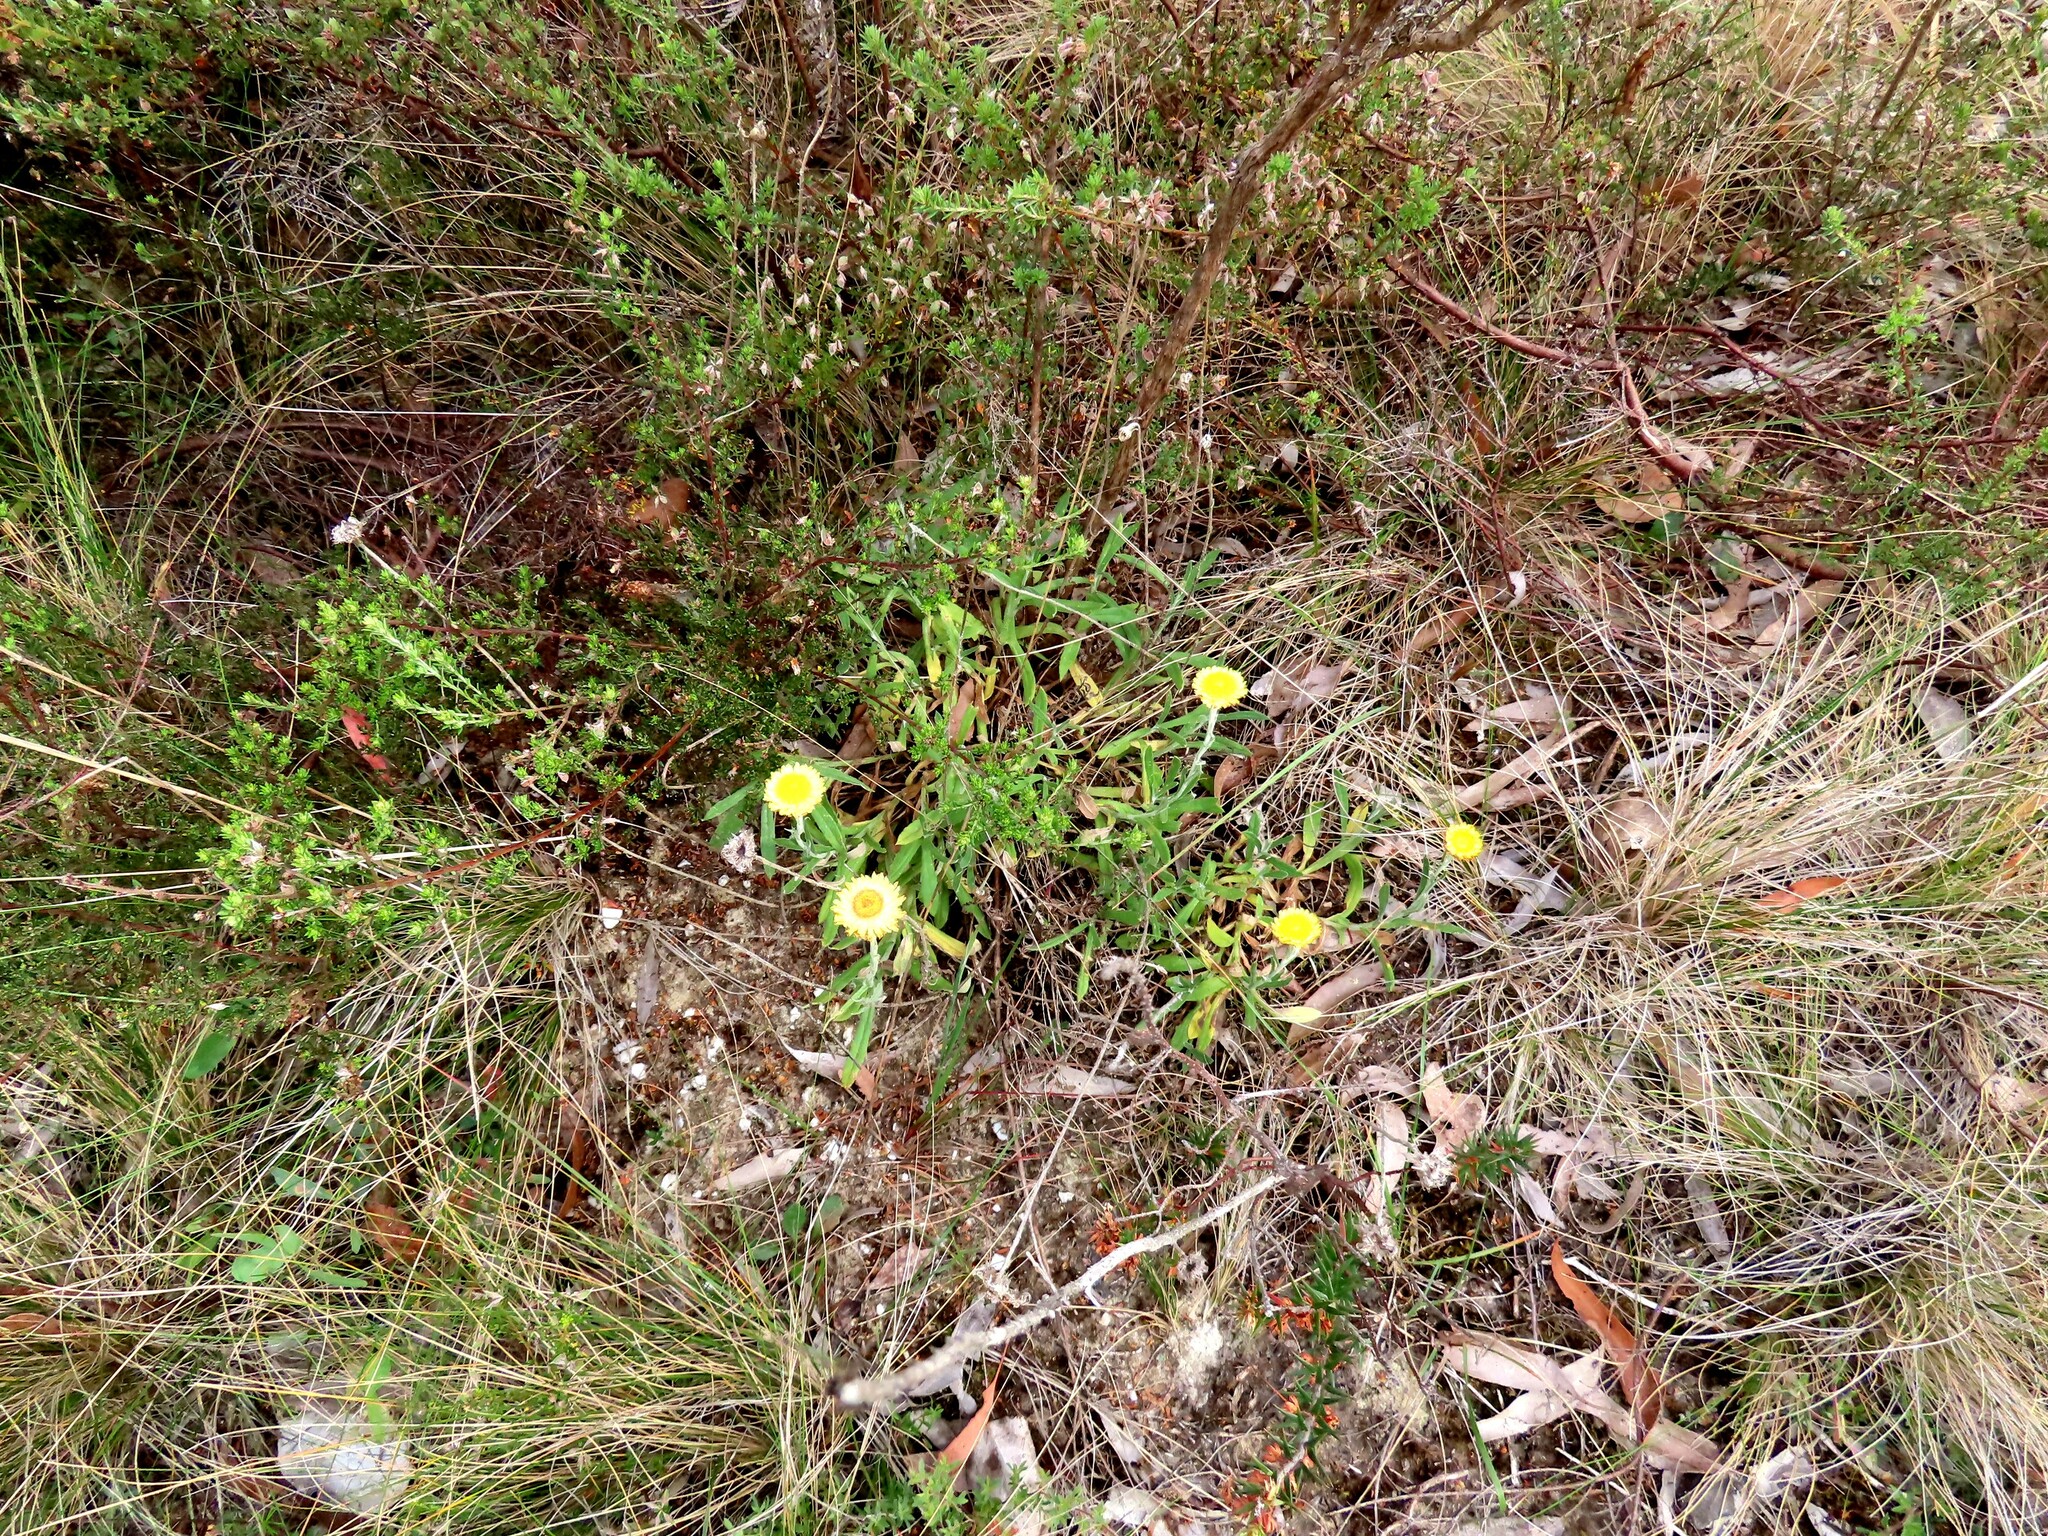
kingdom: Plantae
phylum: Tracheophyta
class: Magnoliopsida
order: Asterales
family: Asteraceae
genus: Coronidium
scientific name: Coronidium scorpioides
